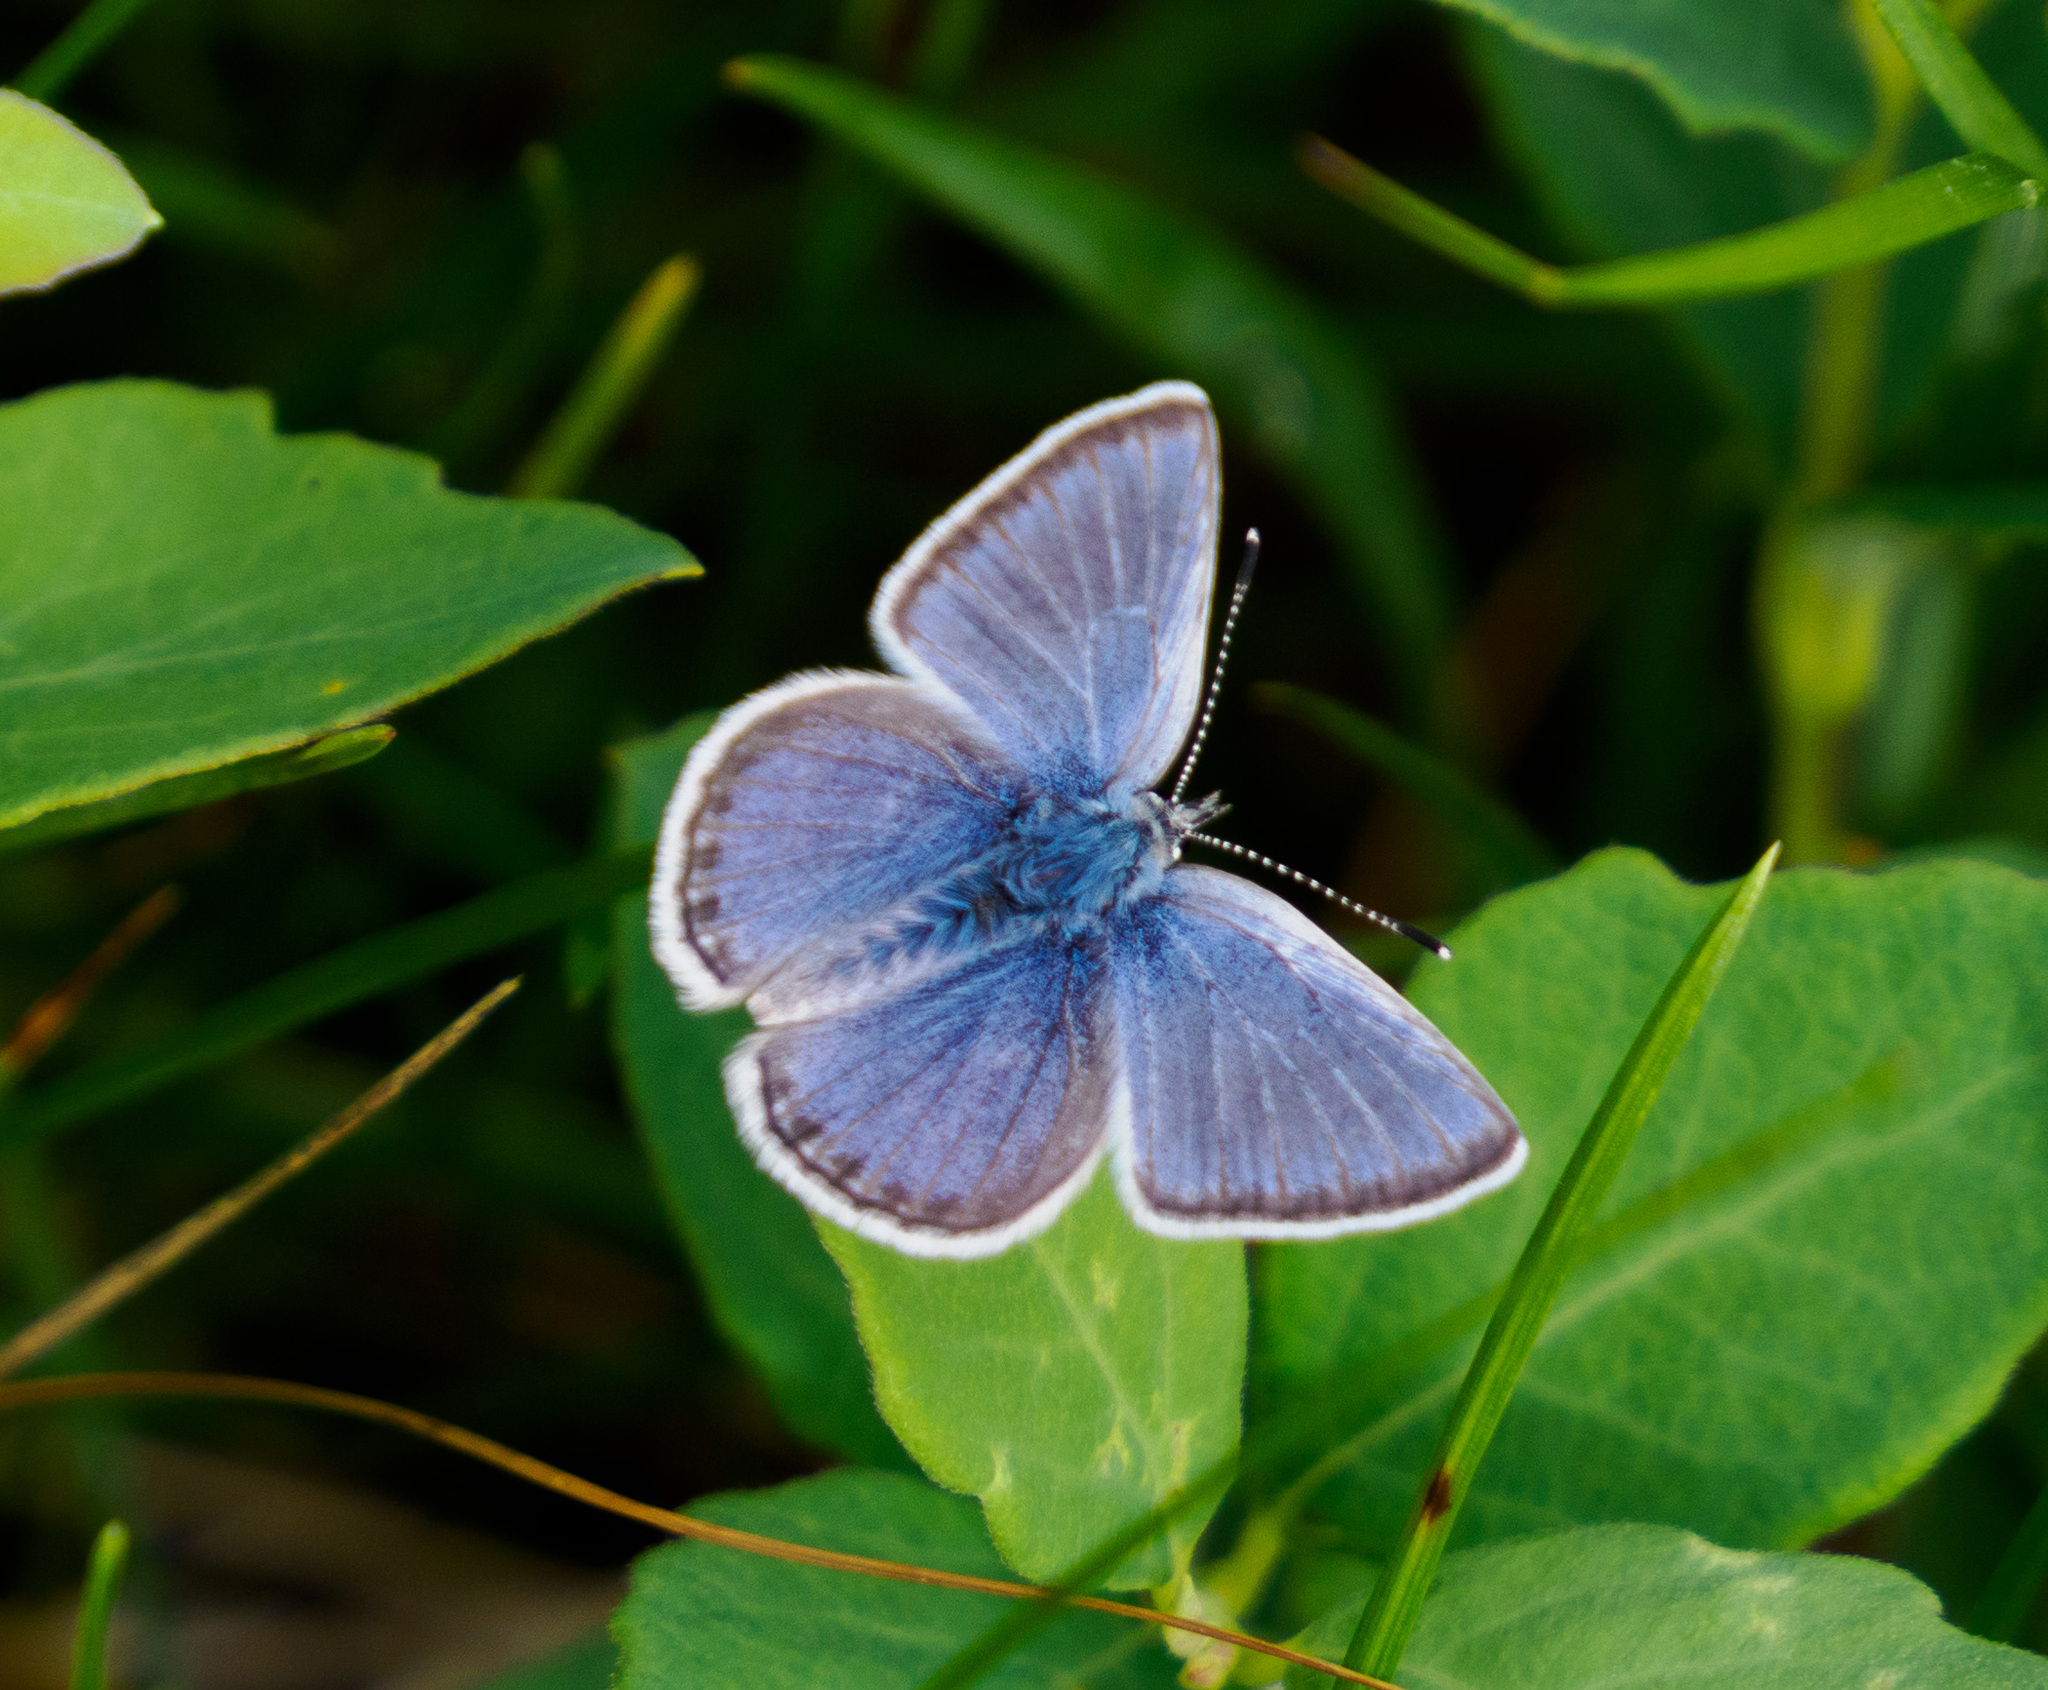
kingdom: Animalia
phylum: Arthropoda
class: Insecta
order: Lepidoptera
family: Lycaenidae
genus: Icaricia
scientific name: Icaricia icarioides
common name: Boisduval's blue
